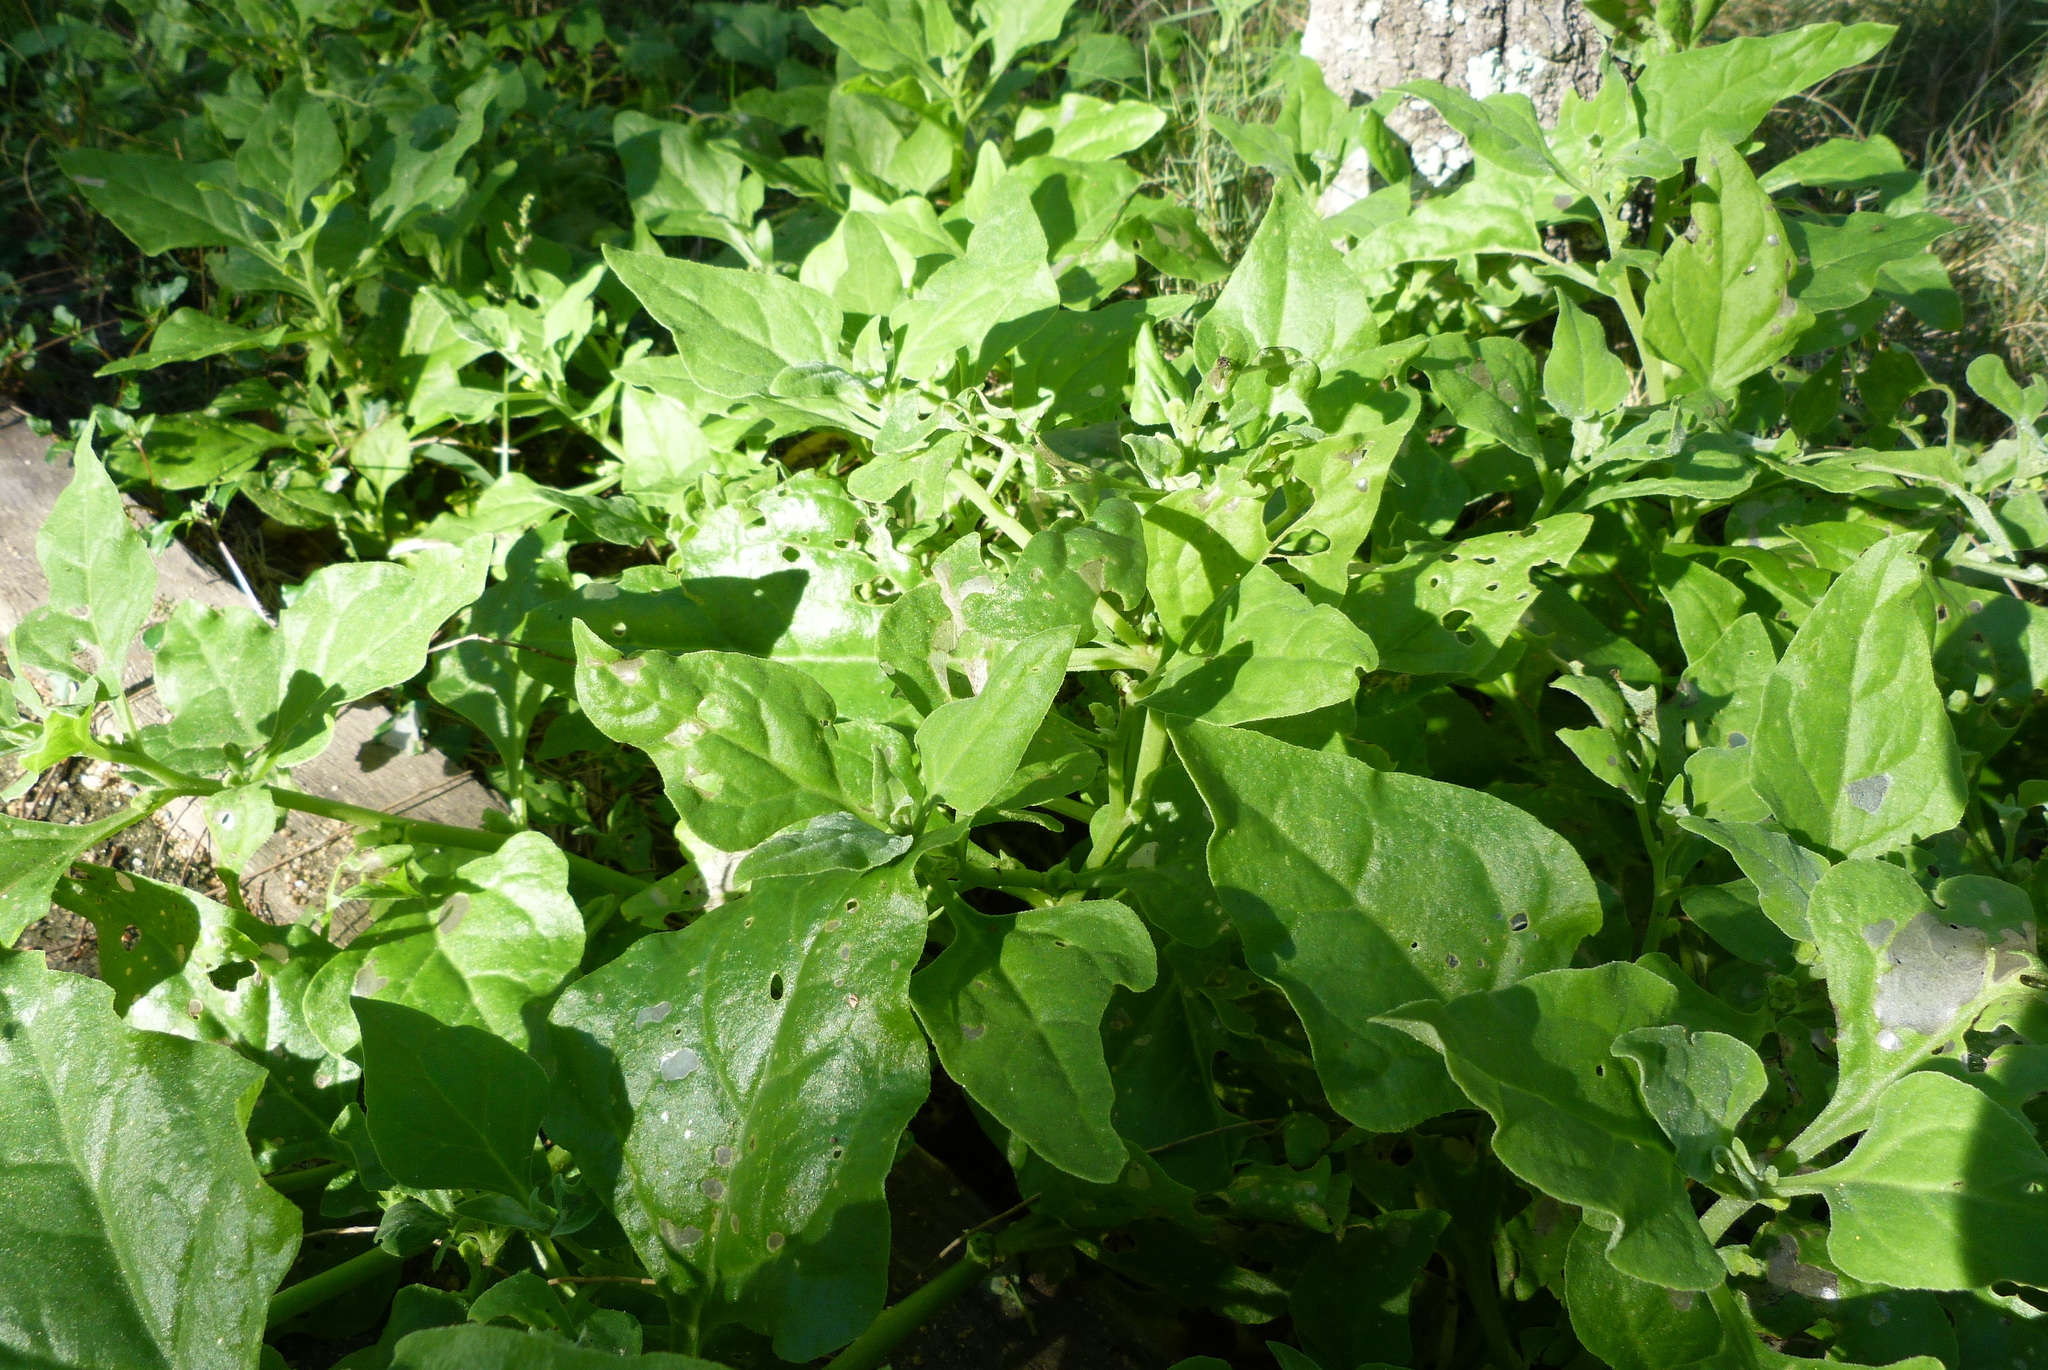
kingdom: Plantae
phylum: Tracheophyta
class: Magnoliopsida
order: Caryophyllales
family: Aizoaceae
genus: Tetragonia
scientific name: Tetragonia tetragonoides
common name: New zealand-spinach
